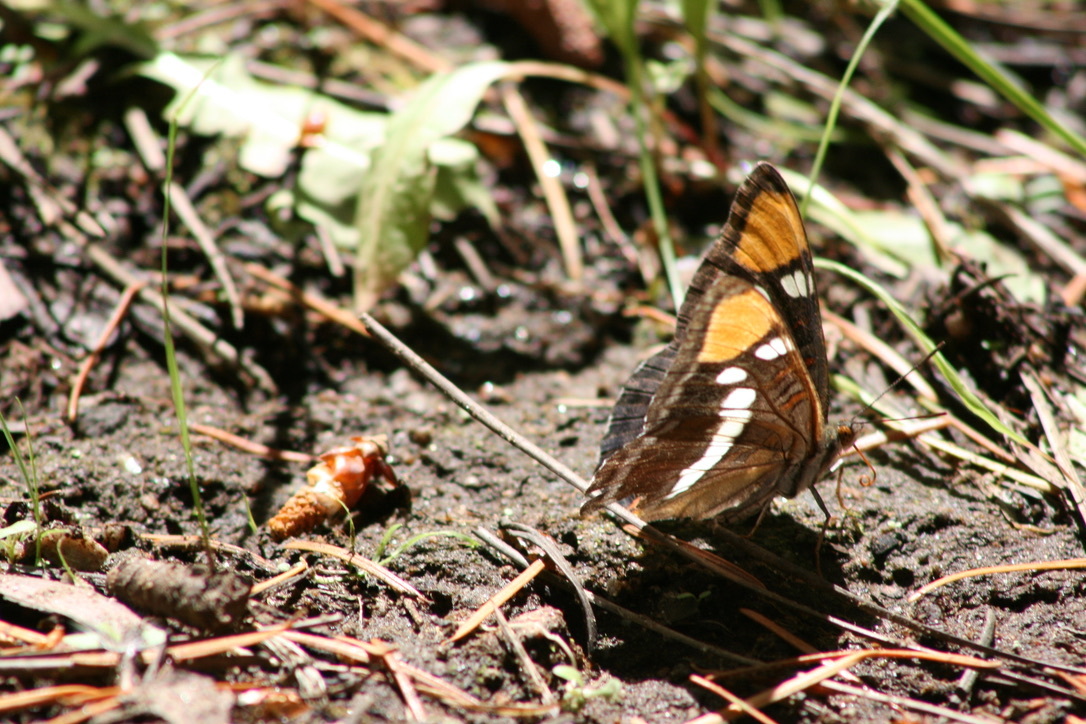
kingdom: Animalia
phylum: Arthropoda
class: Insecta
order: Lepidoptera
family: Nymphalidae
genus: Limenitis
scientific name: Limenitis bredowii
